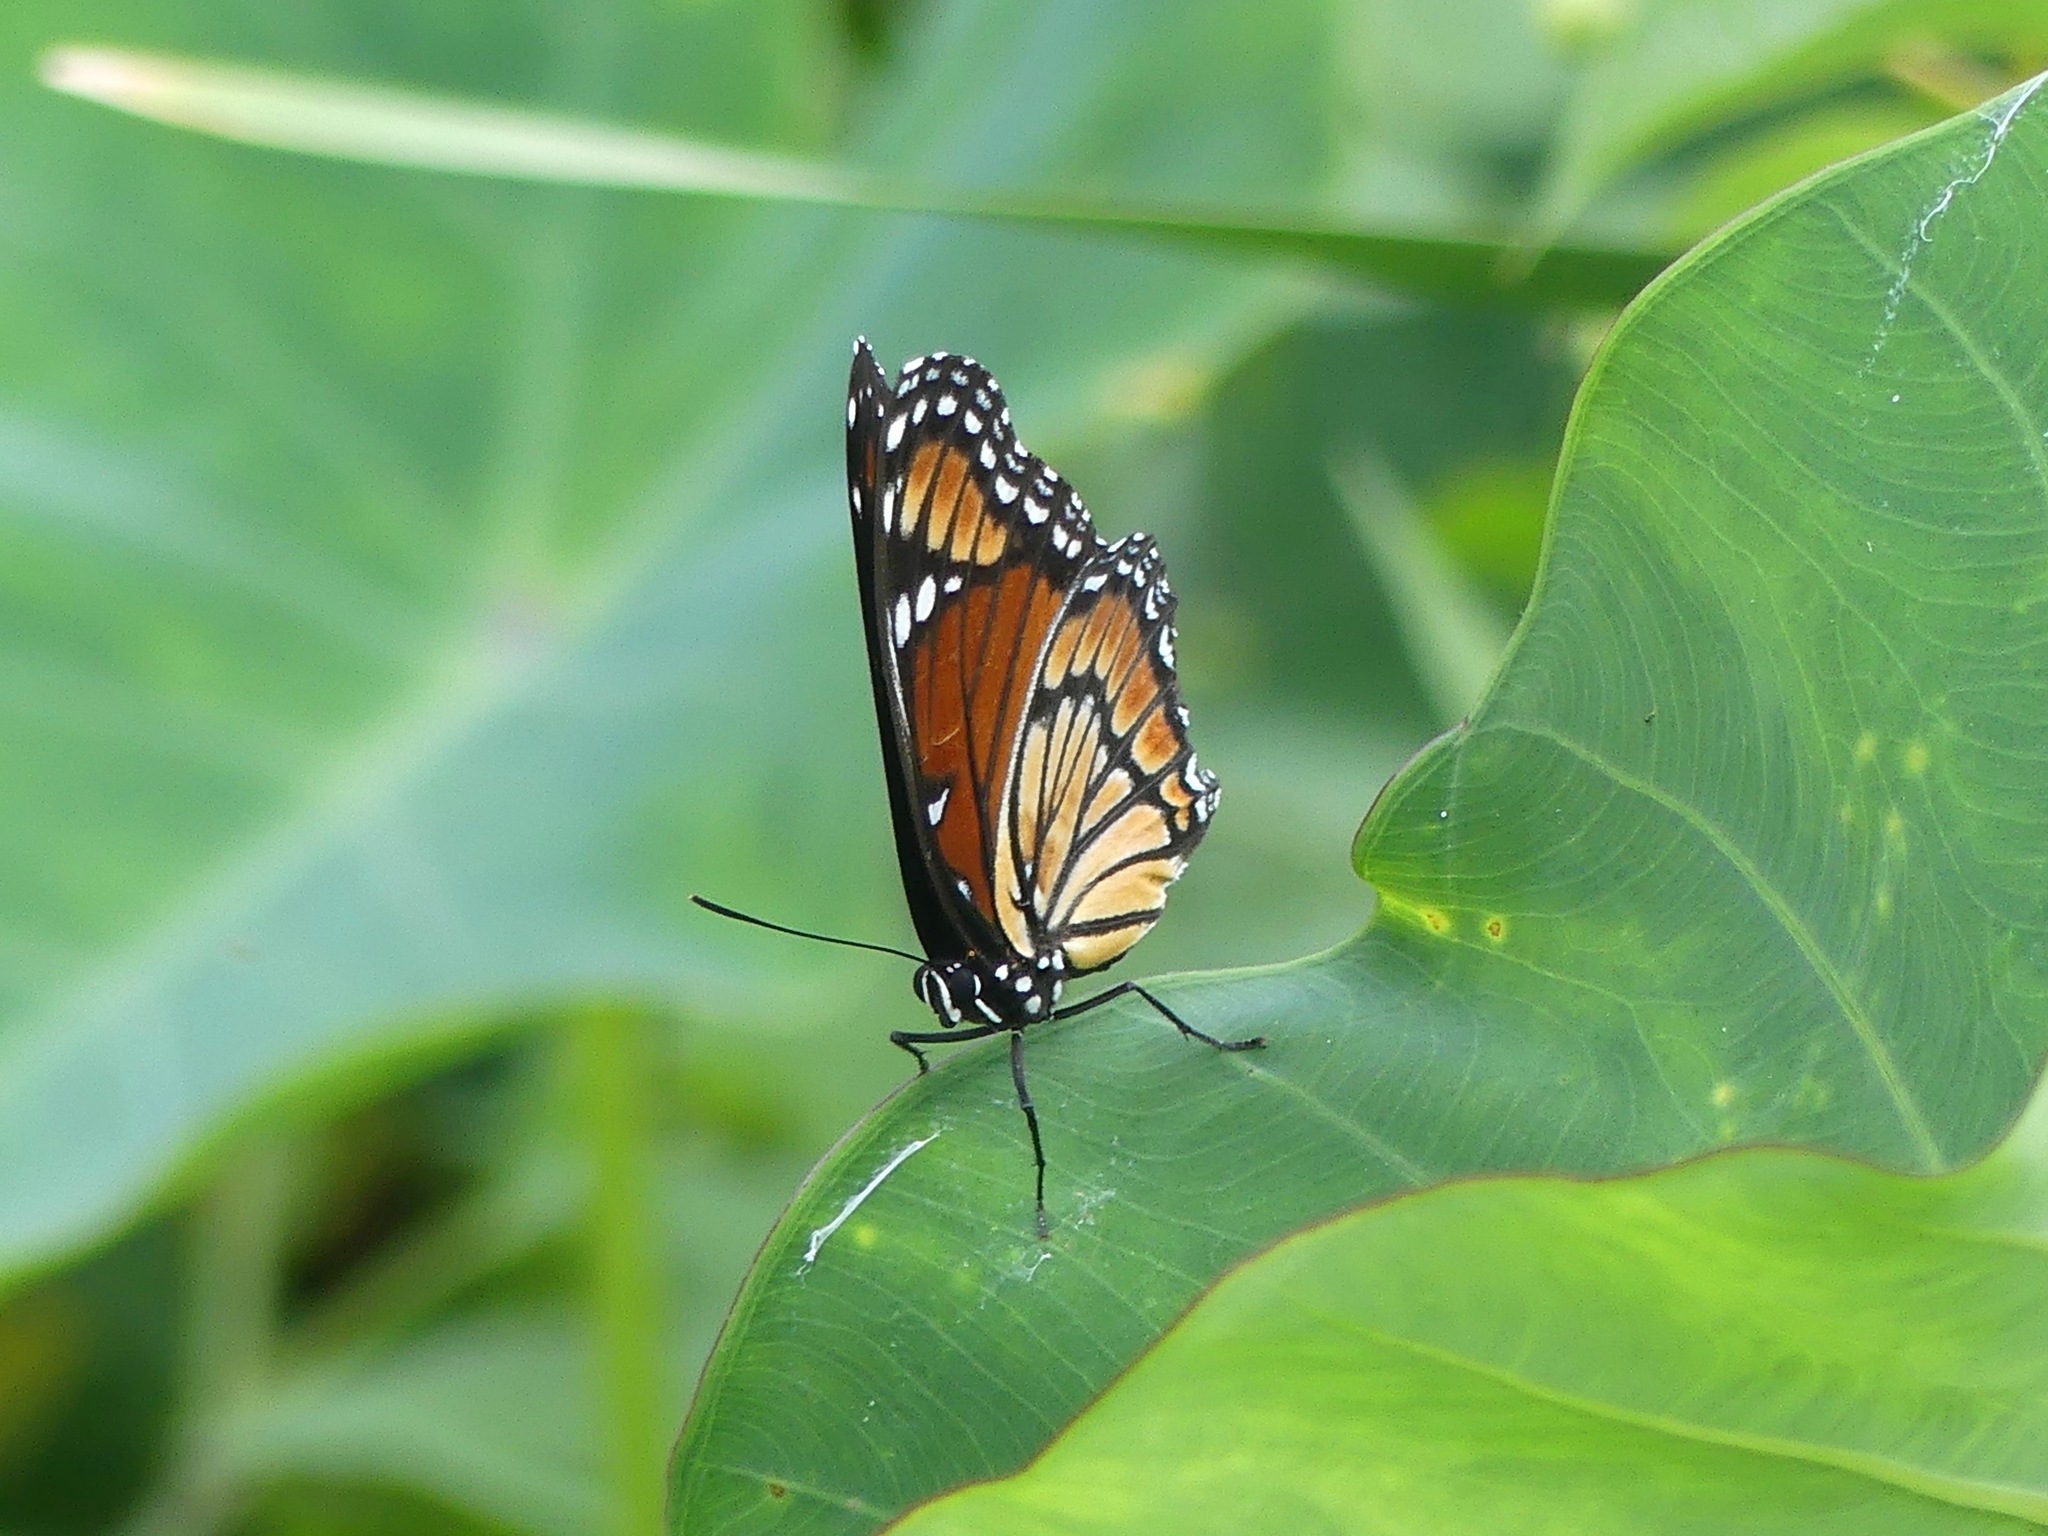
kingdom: Animalia
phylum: Arthropoda
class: Insecta
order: Lepidoptera
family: Nymphalidae
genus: Limenitis
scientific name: Limenitis archippus
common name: Viceroy
